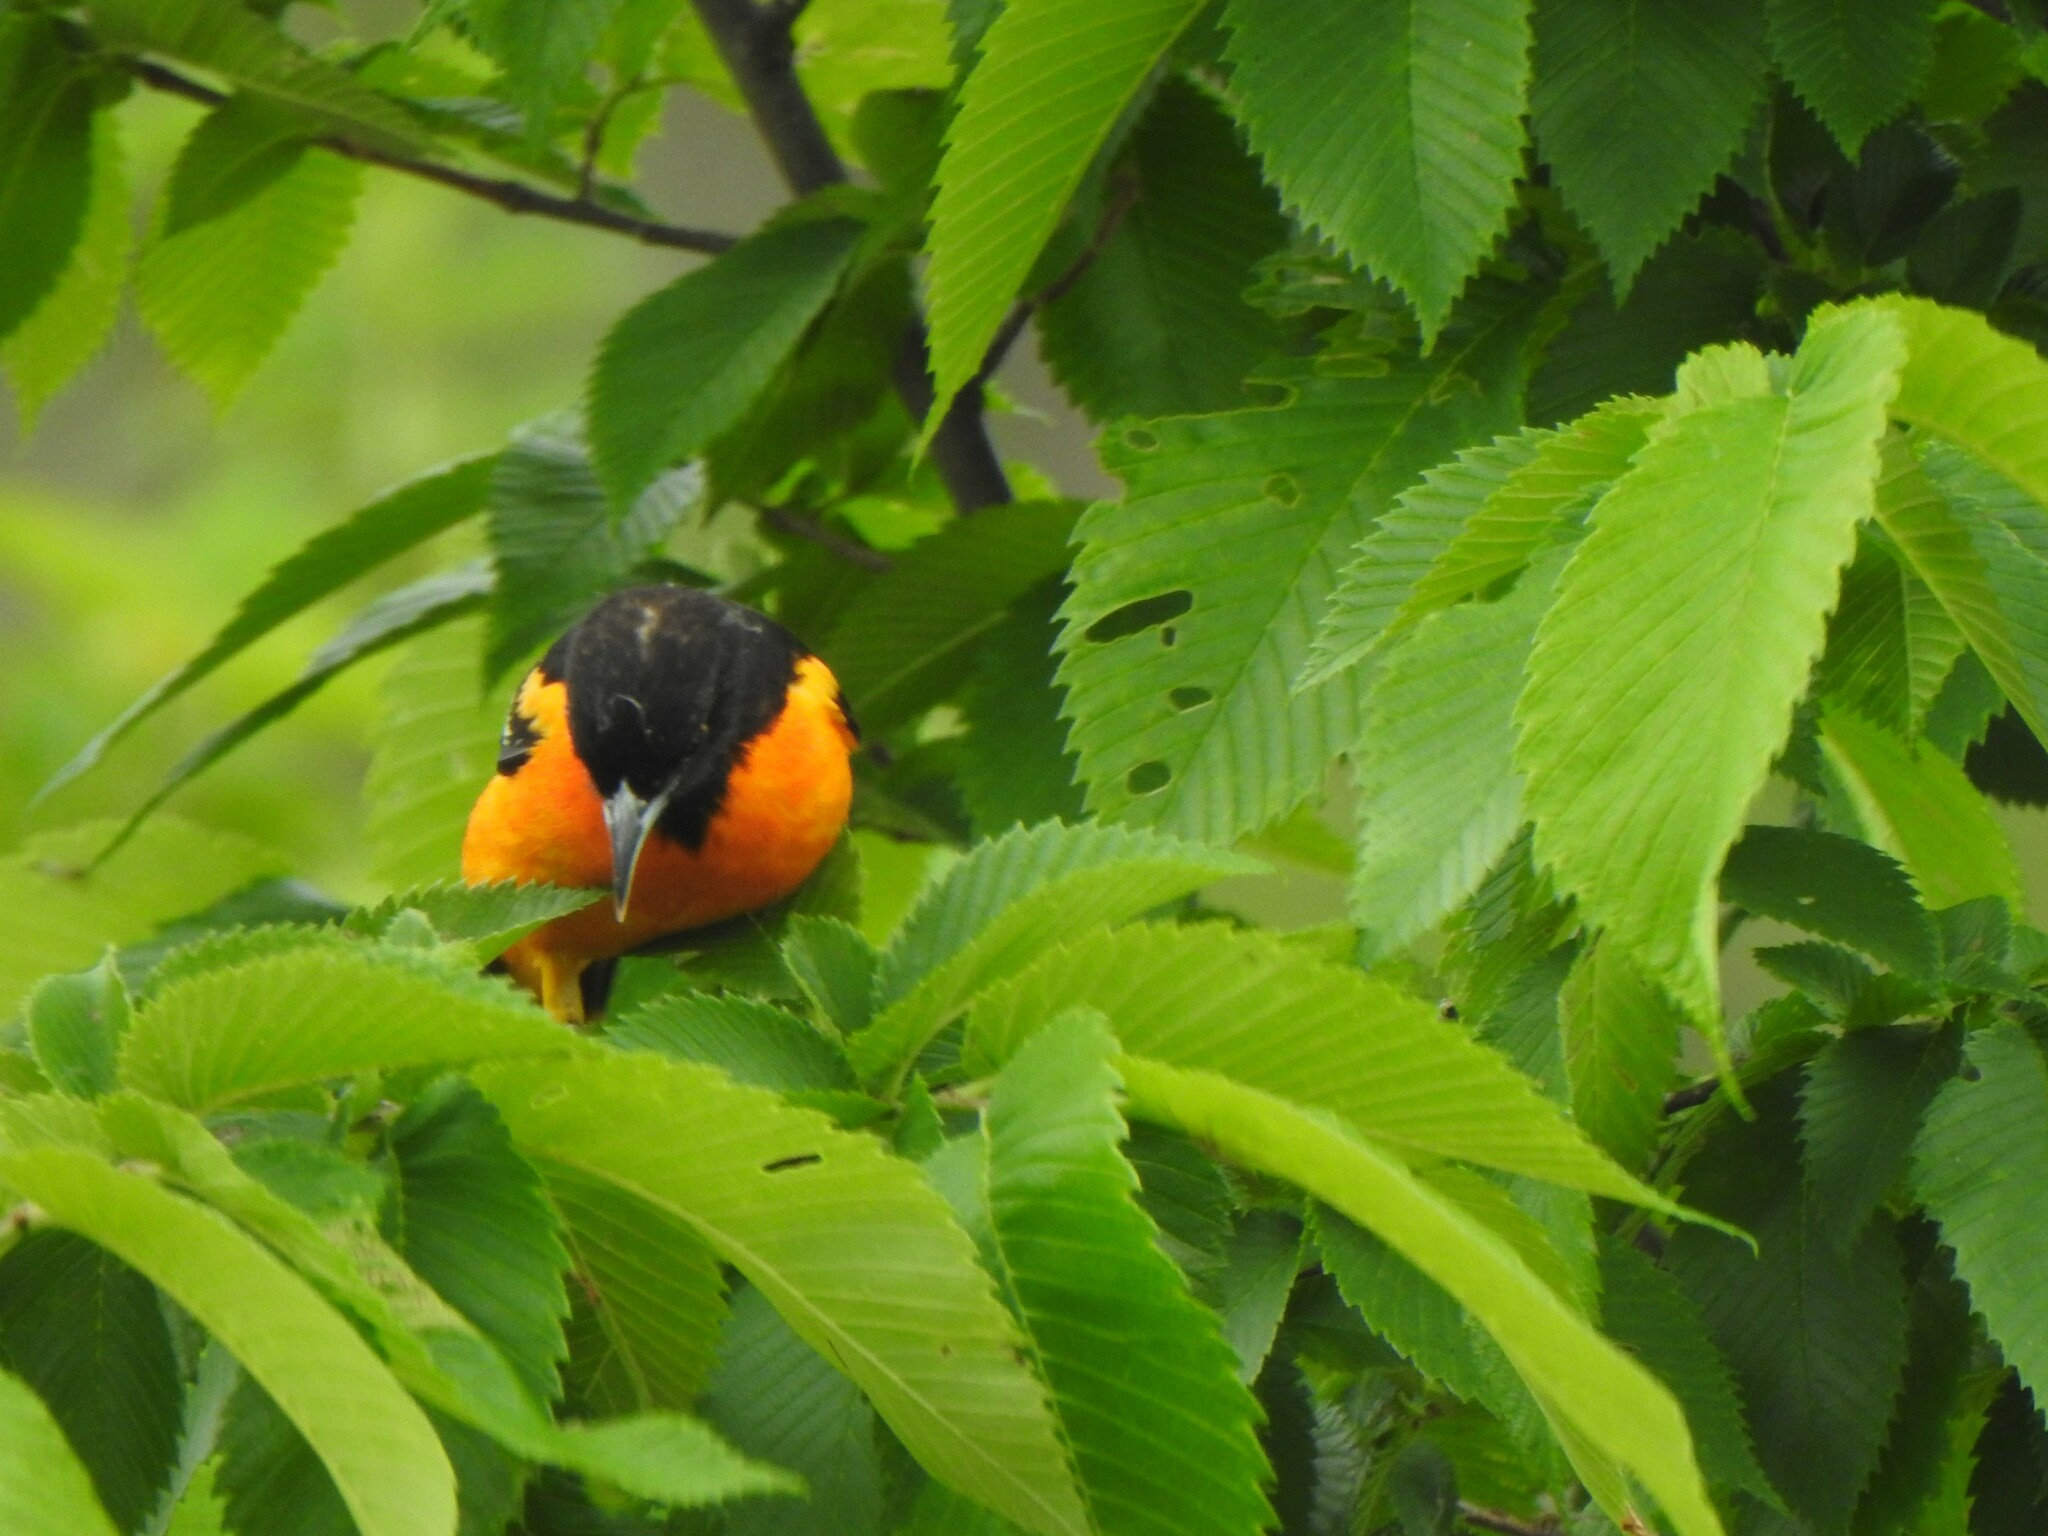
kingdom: Animalia
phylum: Chordata
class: Aves
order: Passeriformes
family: Icteridae
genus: Icterus
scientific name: Icterus galbula
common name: Baltimore oriole
